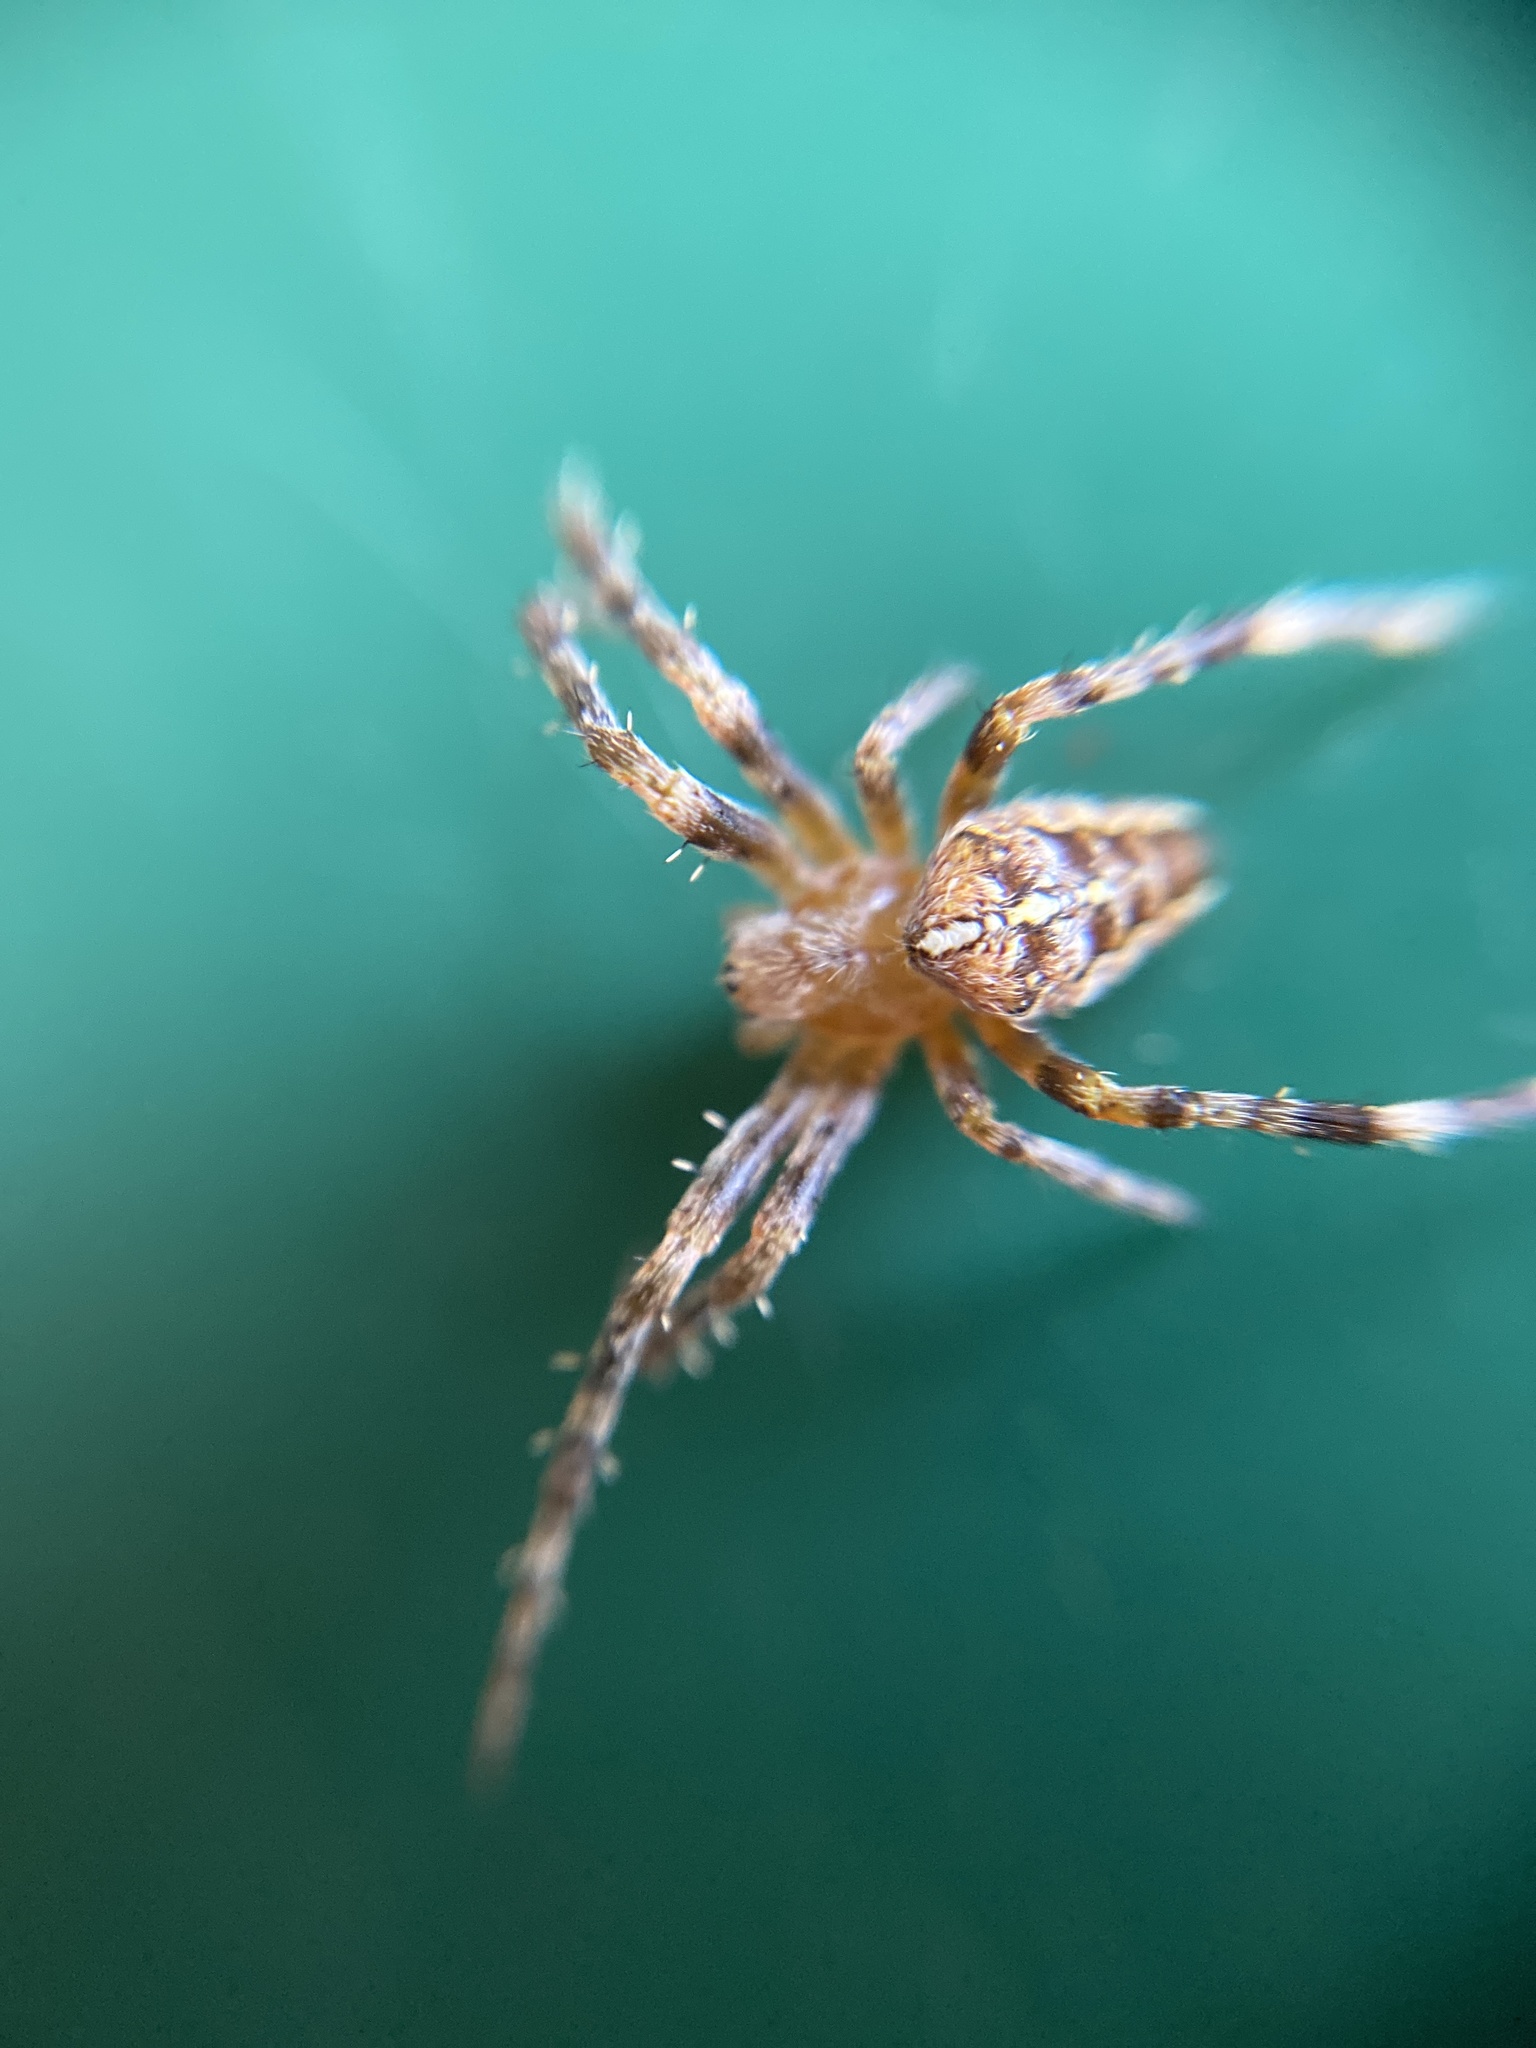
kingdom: Animalia
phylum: Arthropoda
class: Arachnida
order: Araneae
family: Araneidae
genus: Araneus
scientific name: Araneus diadematus
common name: Cross orbweaver
